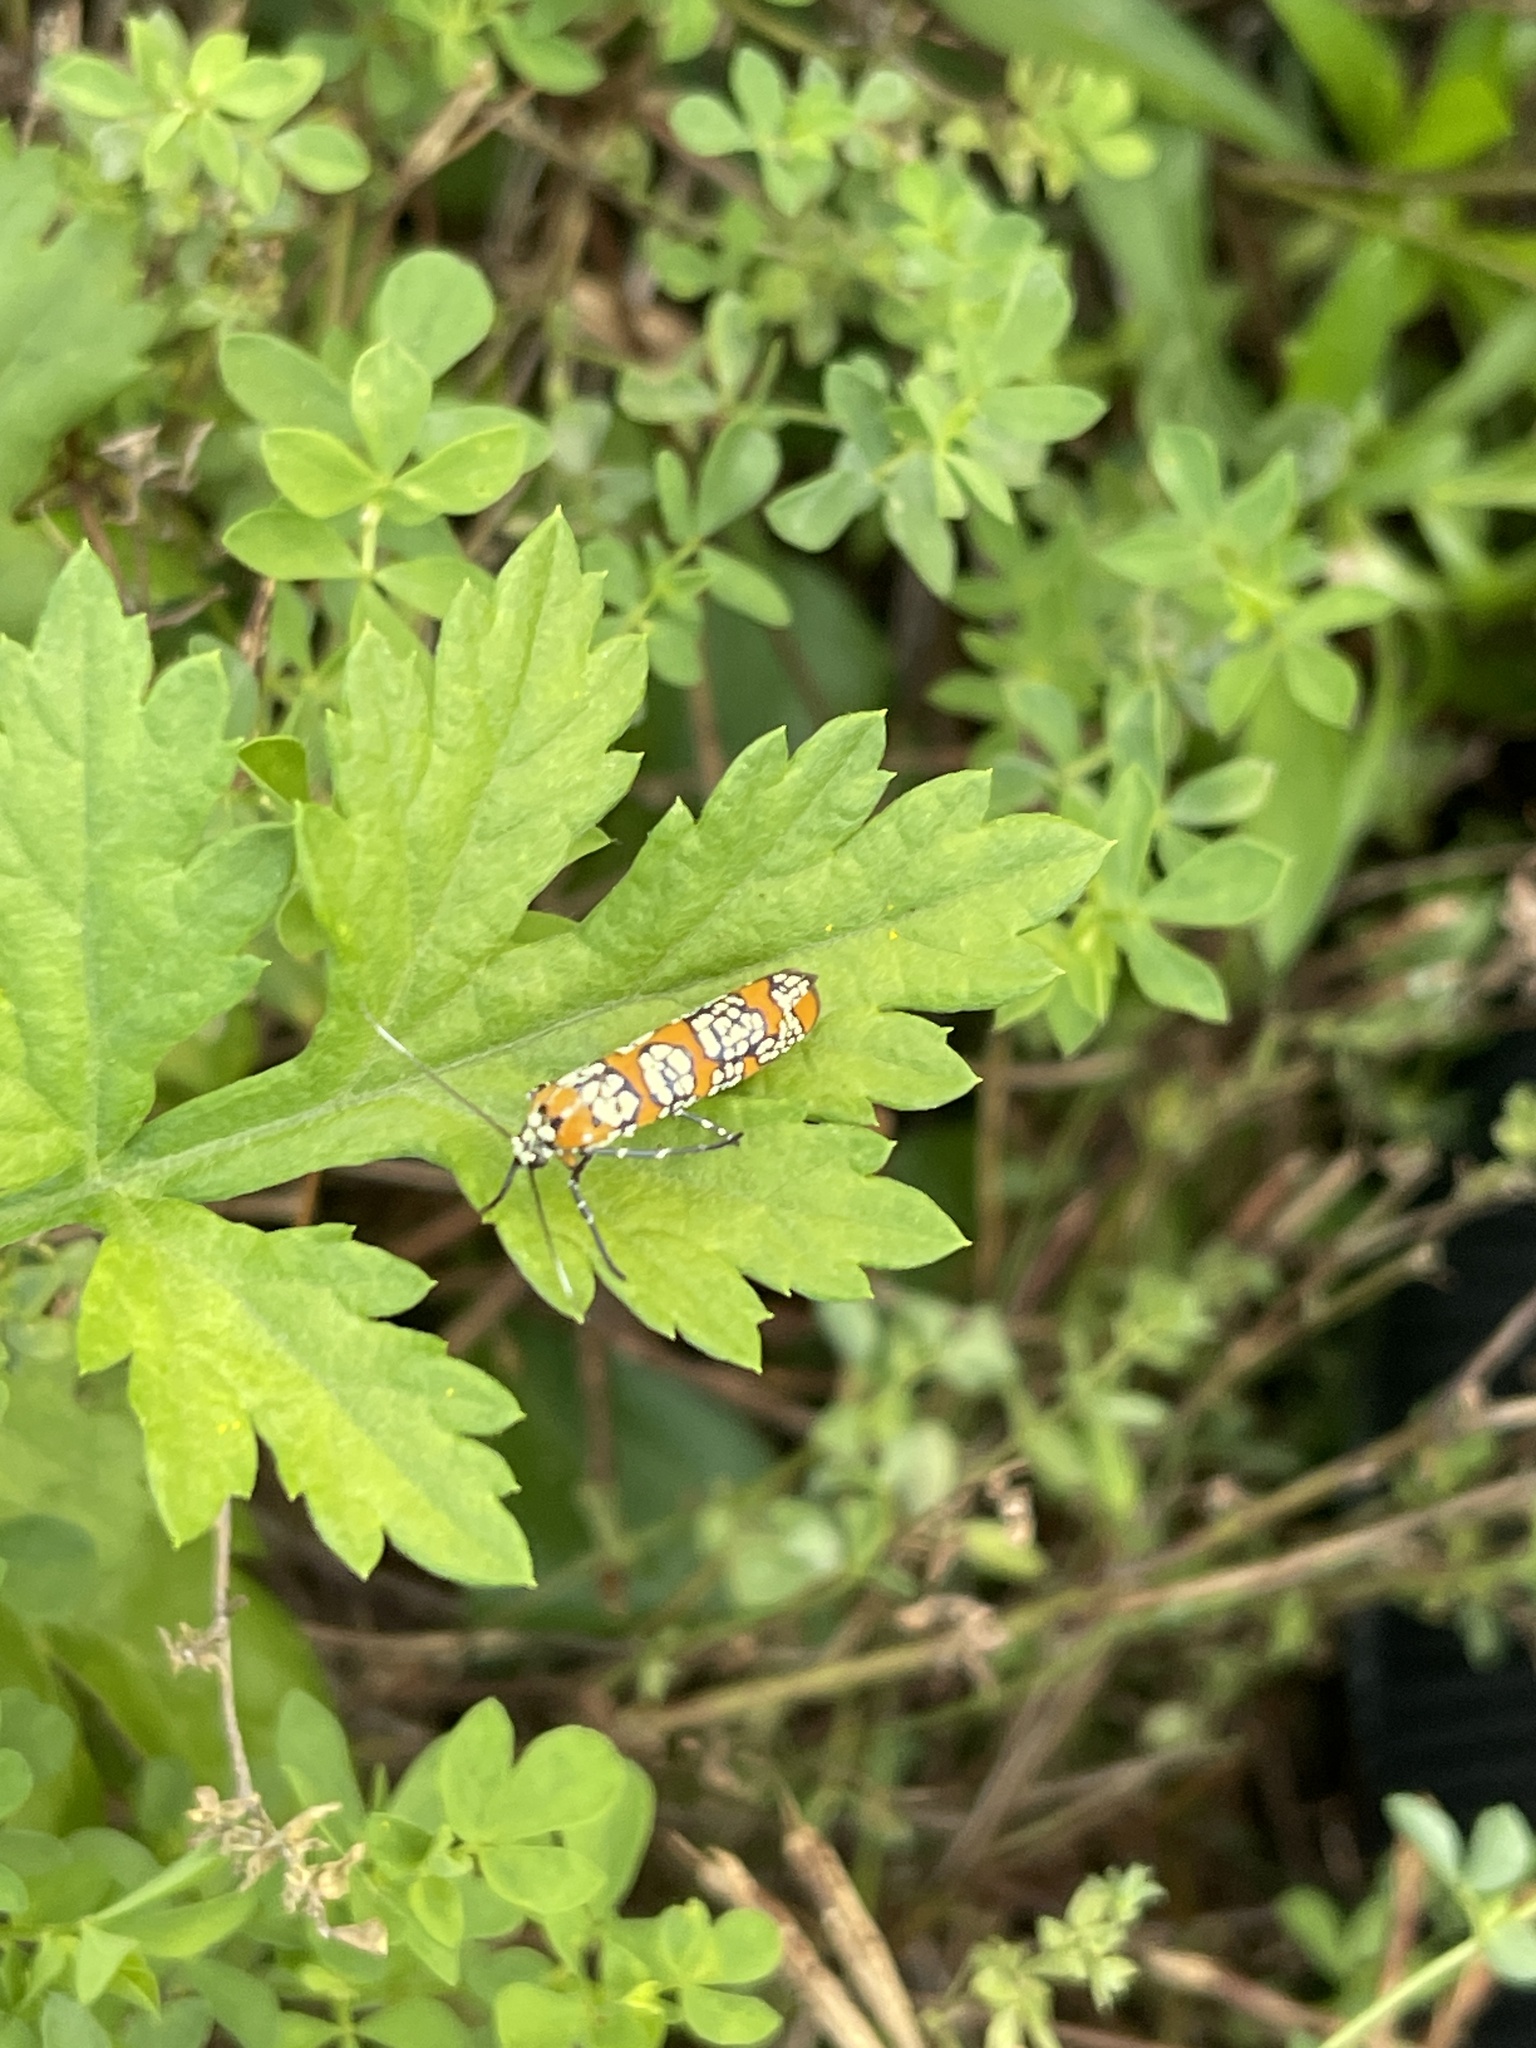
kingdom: Animalia
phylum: Arthropoda
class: Insecta
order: Lepidoptera
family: Attevidae
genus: Atteva
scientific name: Atteva punctella
